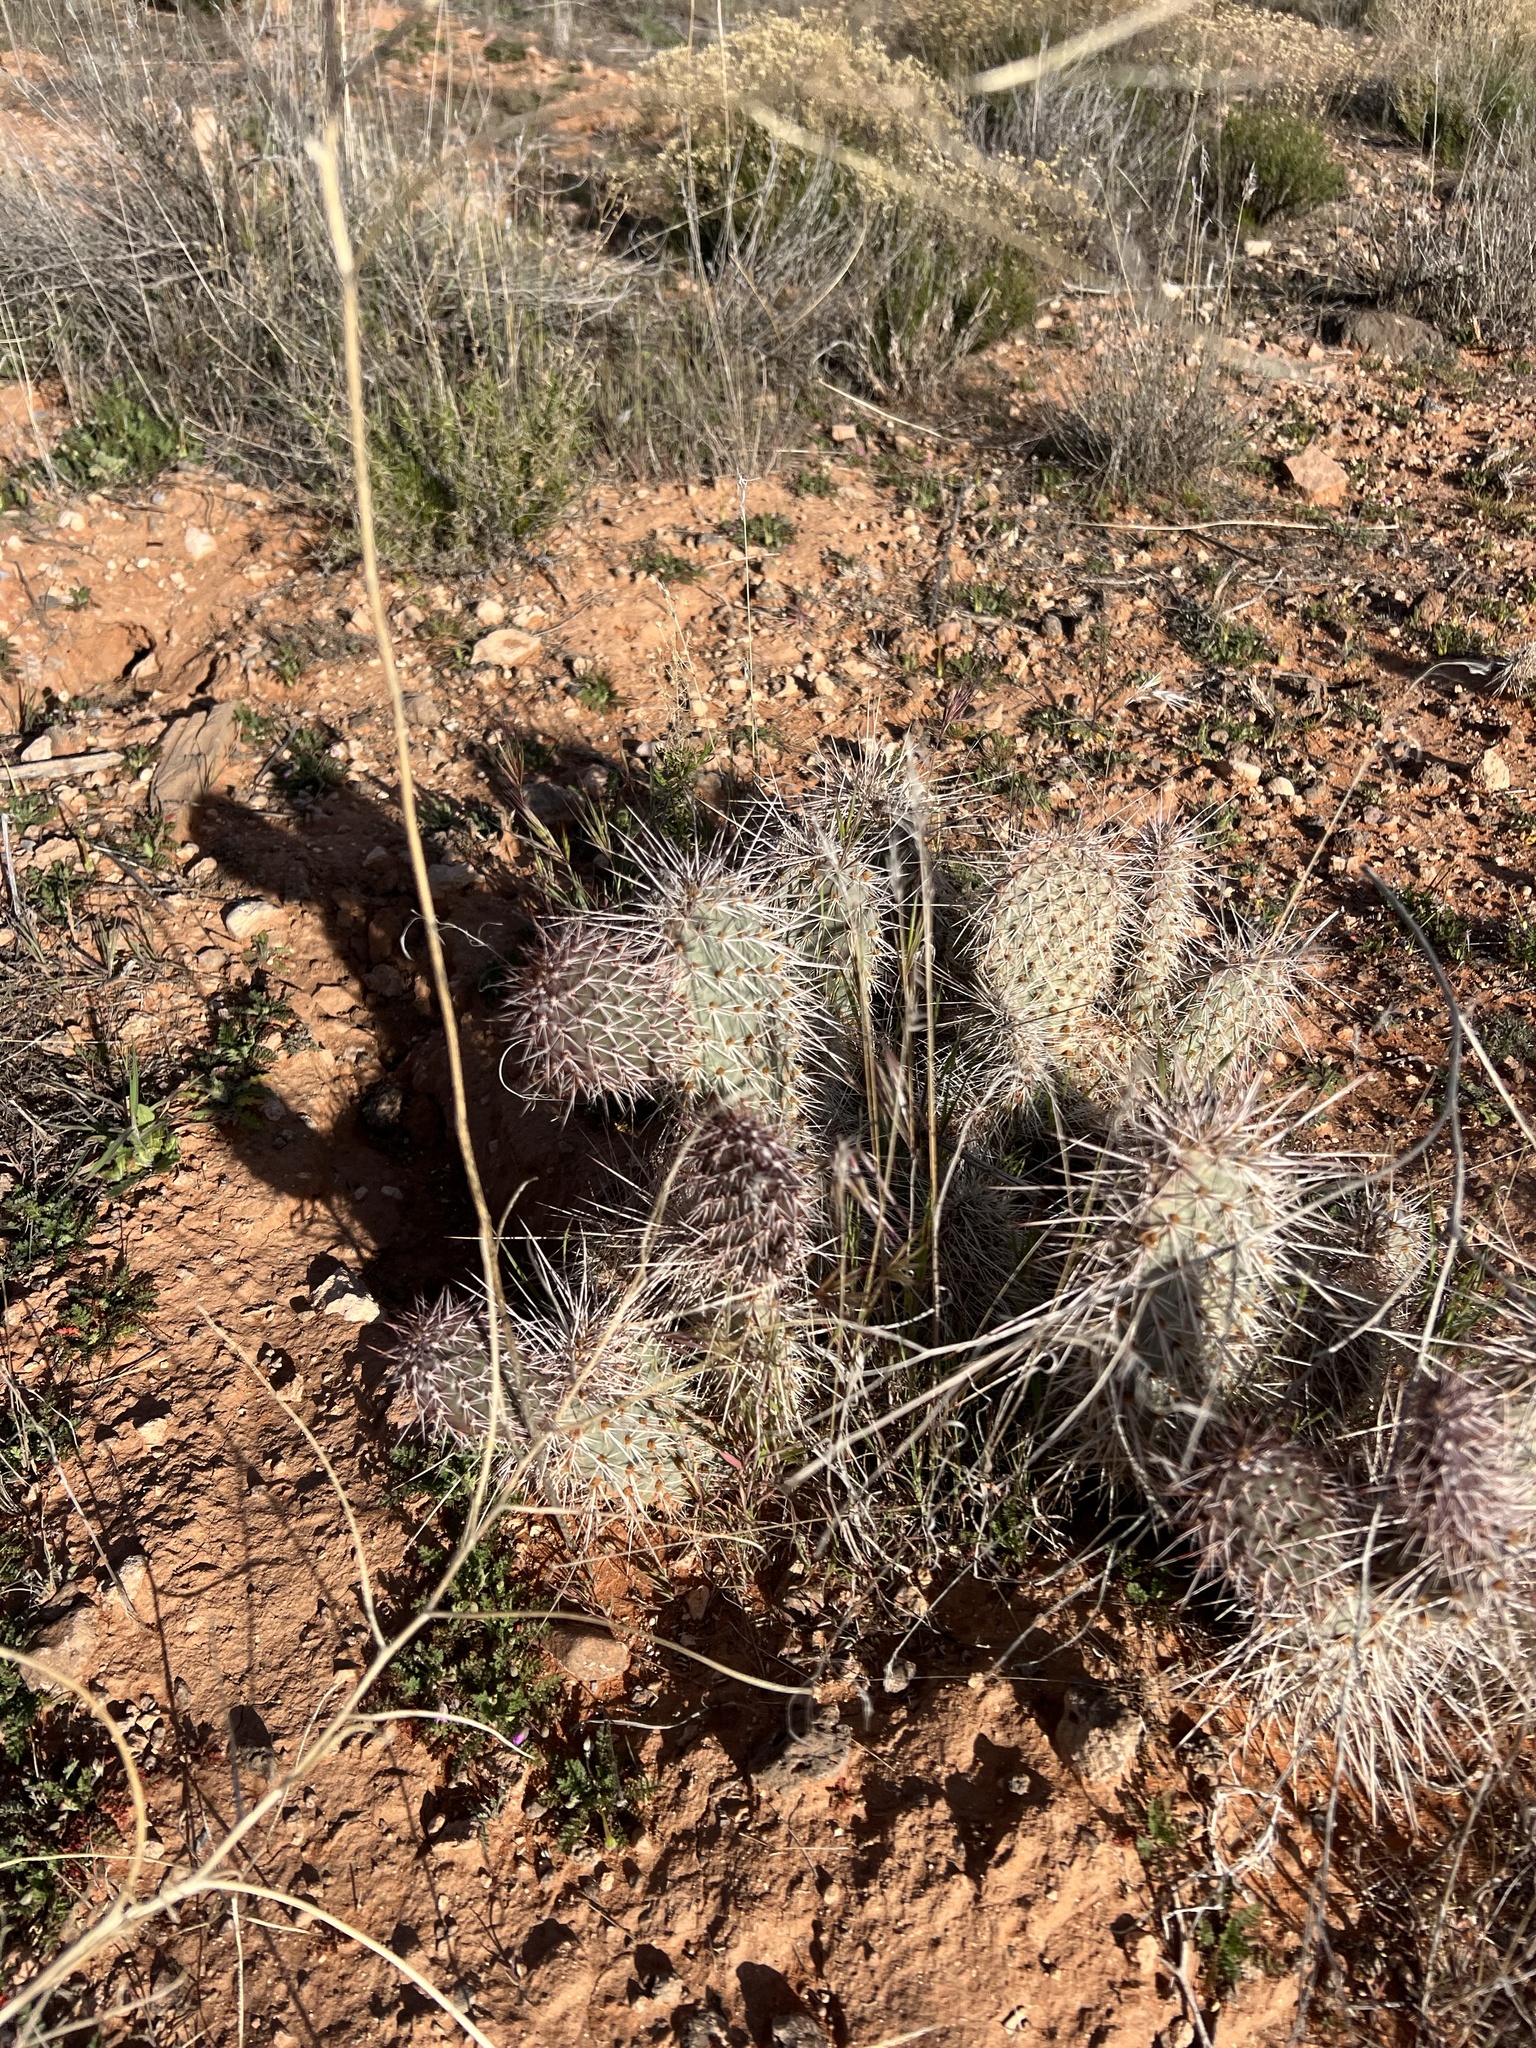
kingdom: Plantae
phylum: Tracheophyta
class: Magnoliopsida
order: Caryophyllales
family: Cactaceae
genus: Opuntia
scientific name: Opuntia polyacantha
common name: Plains prickly-pear
